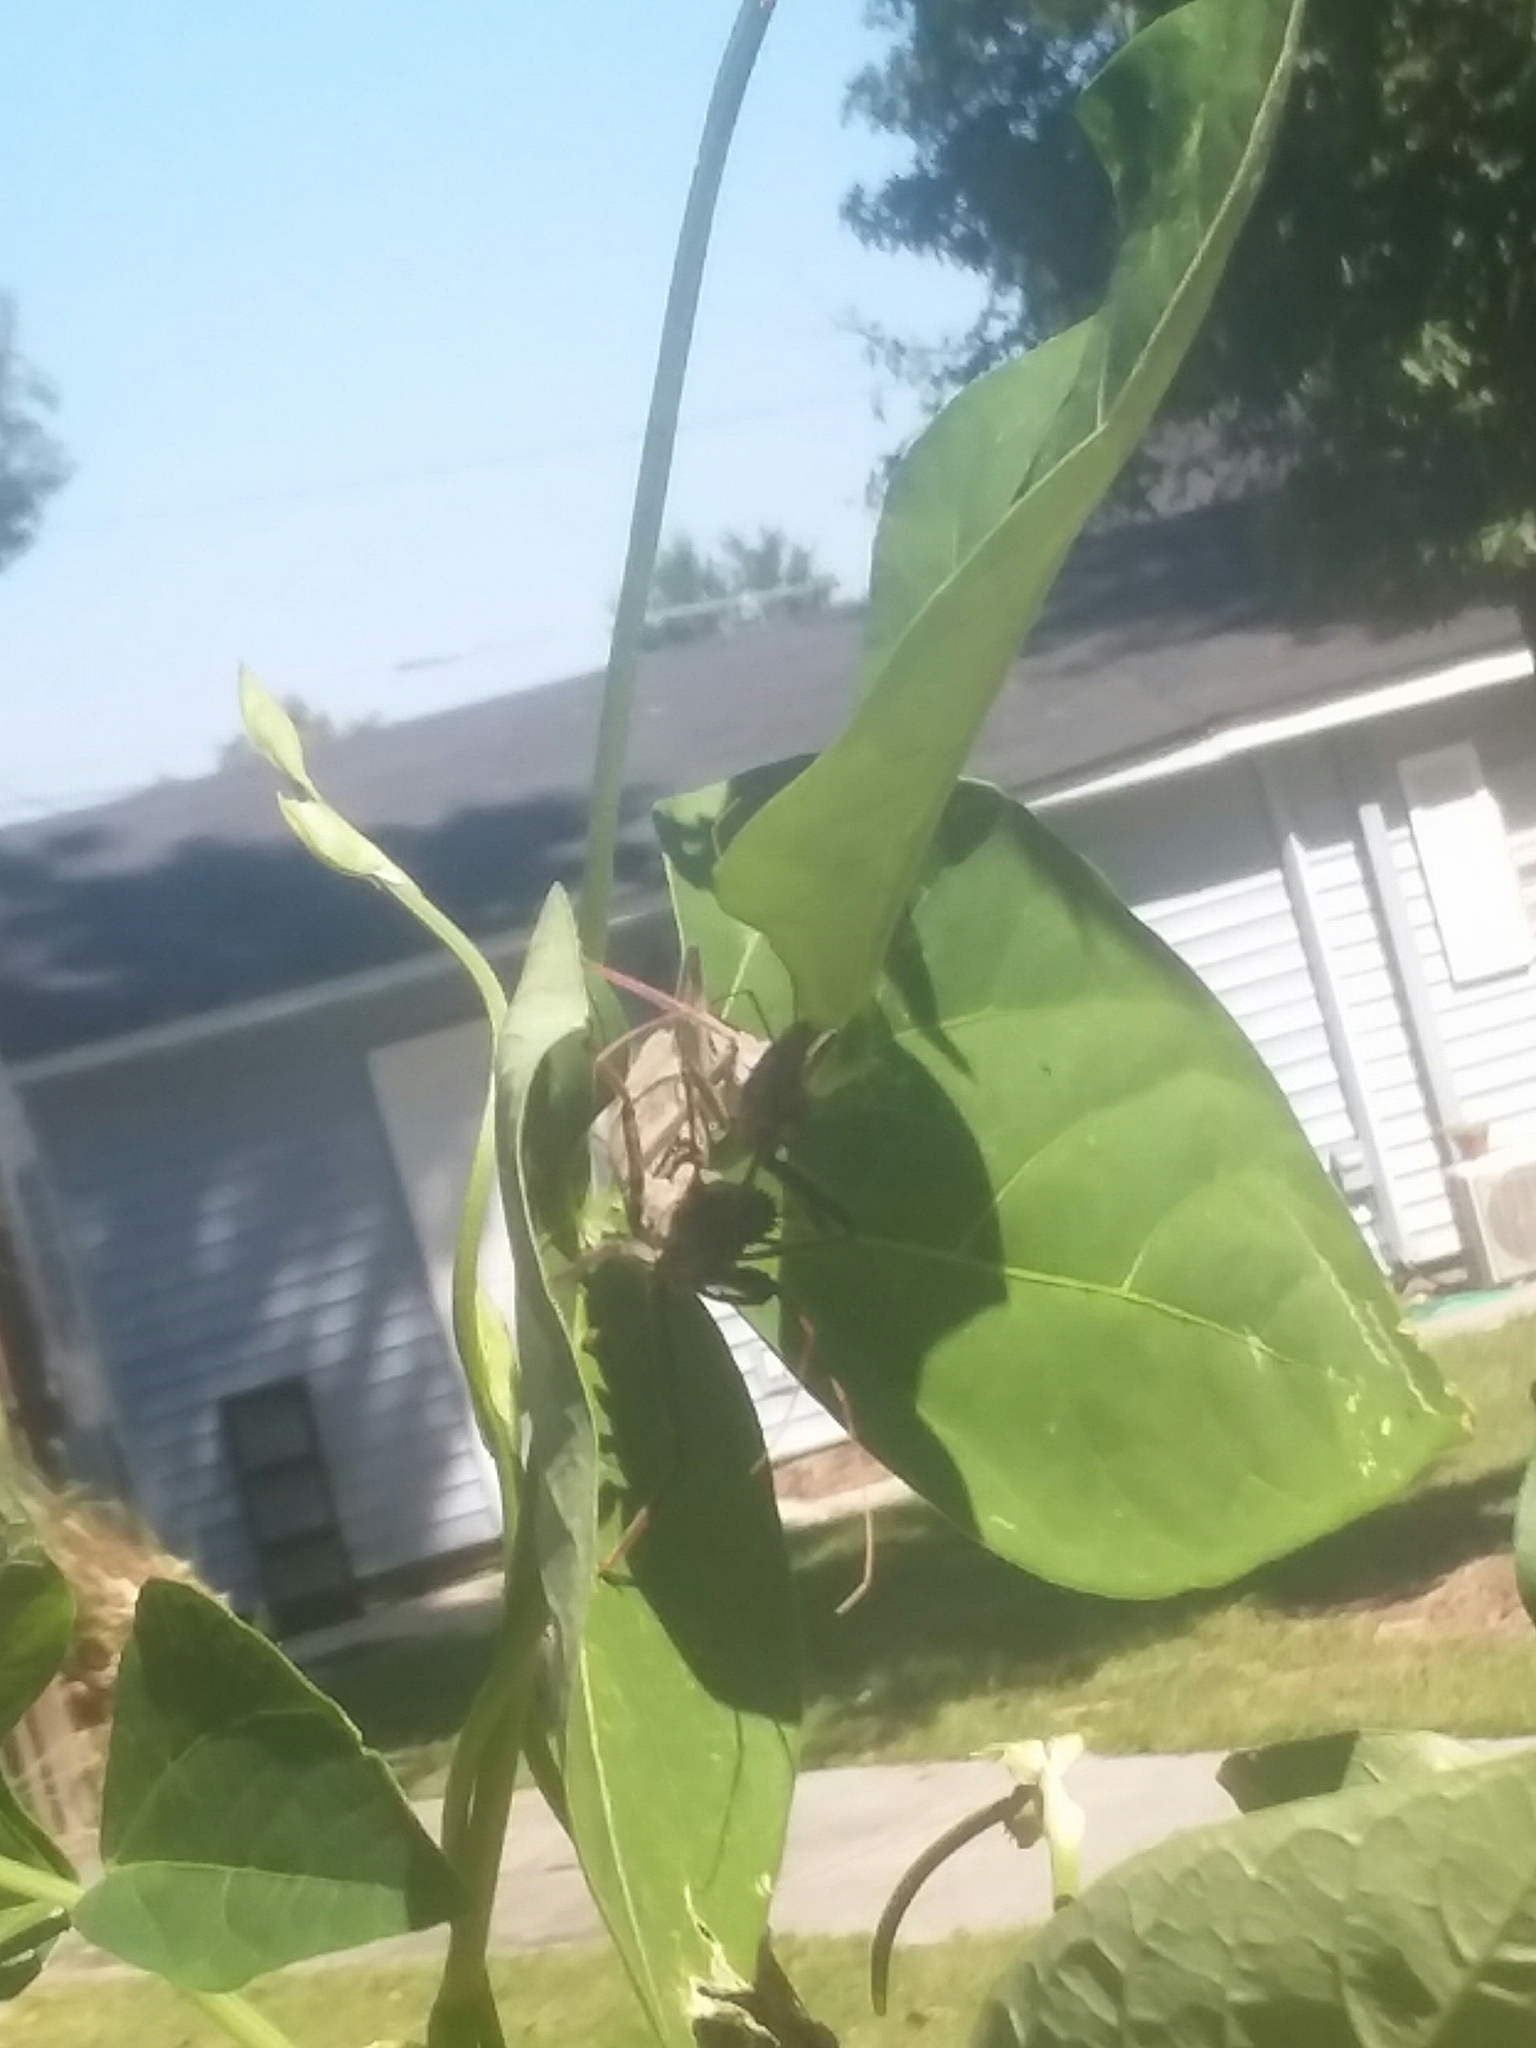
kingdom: Animalia
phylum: Arthropoda
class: Insecta
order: Hemiptera
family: Reduviidae
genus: Arilus
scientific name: Arilus cristatus
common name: North american wheel bug
